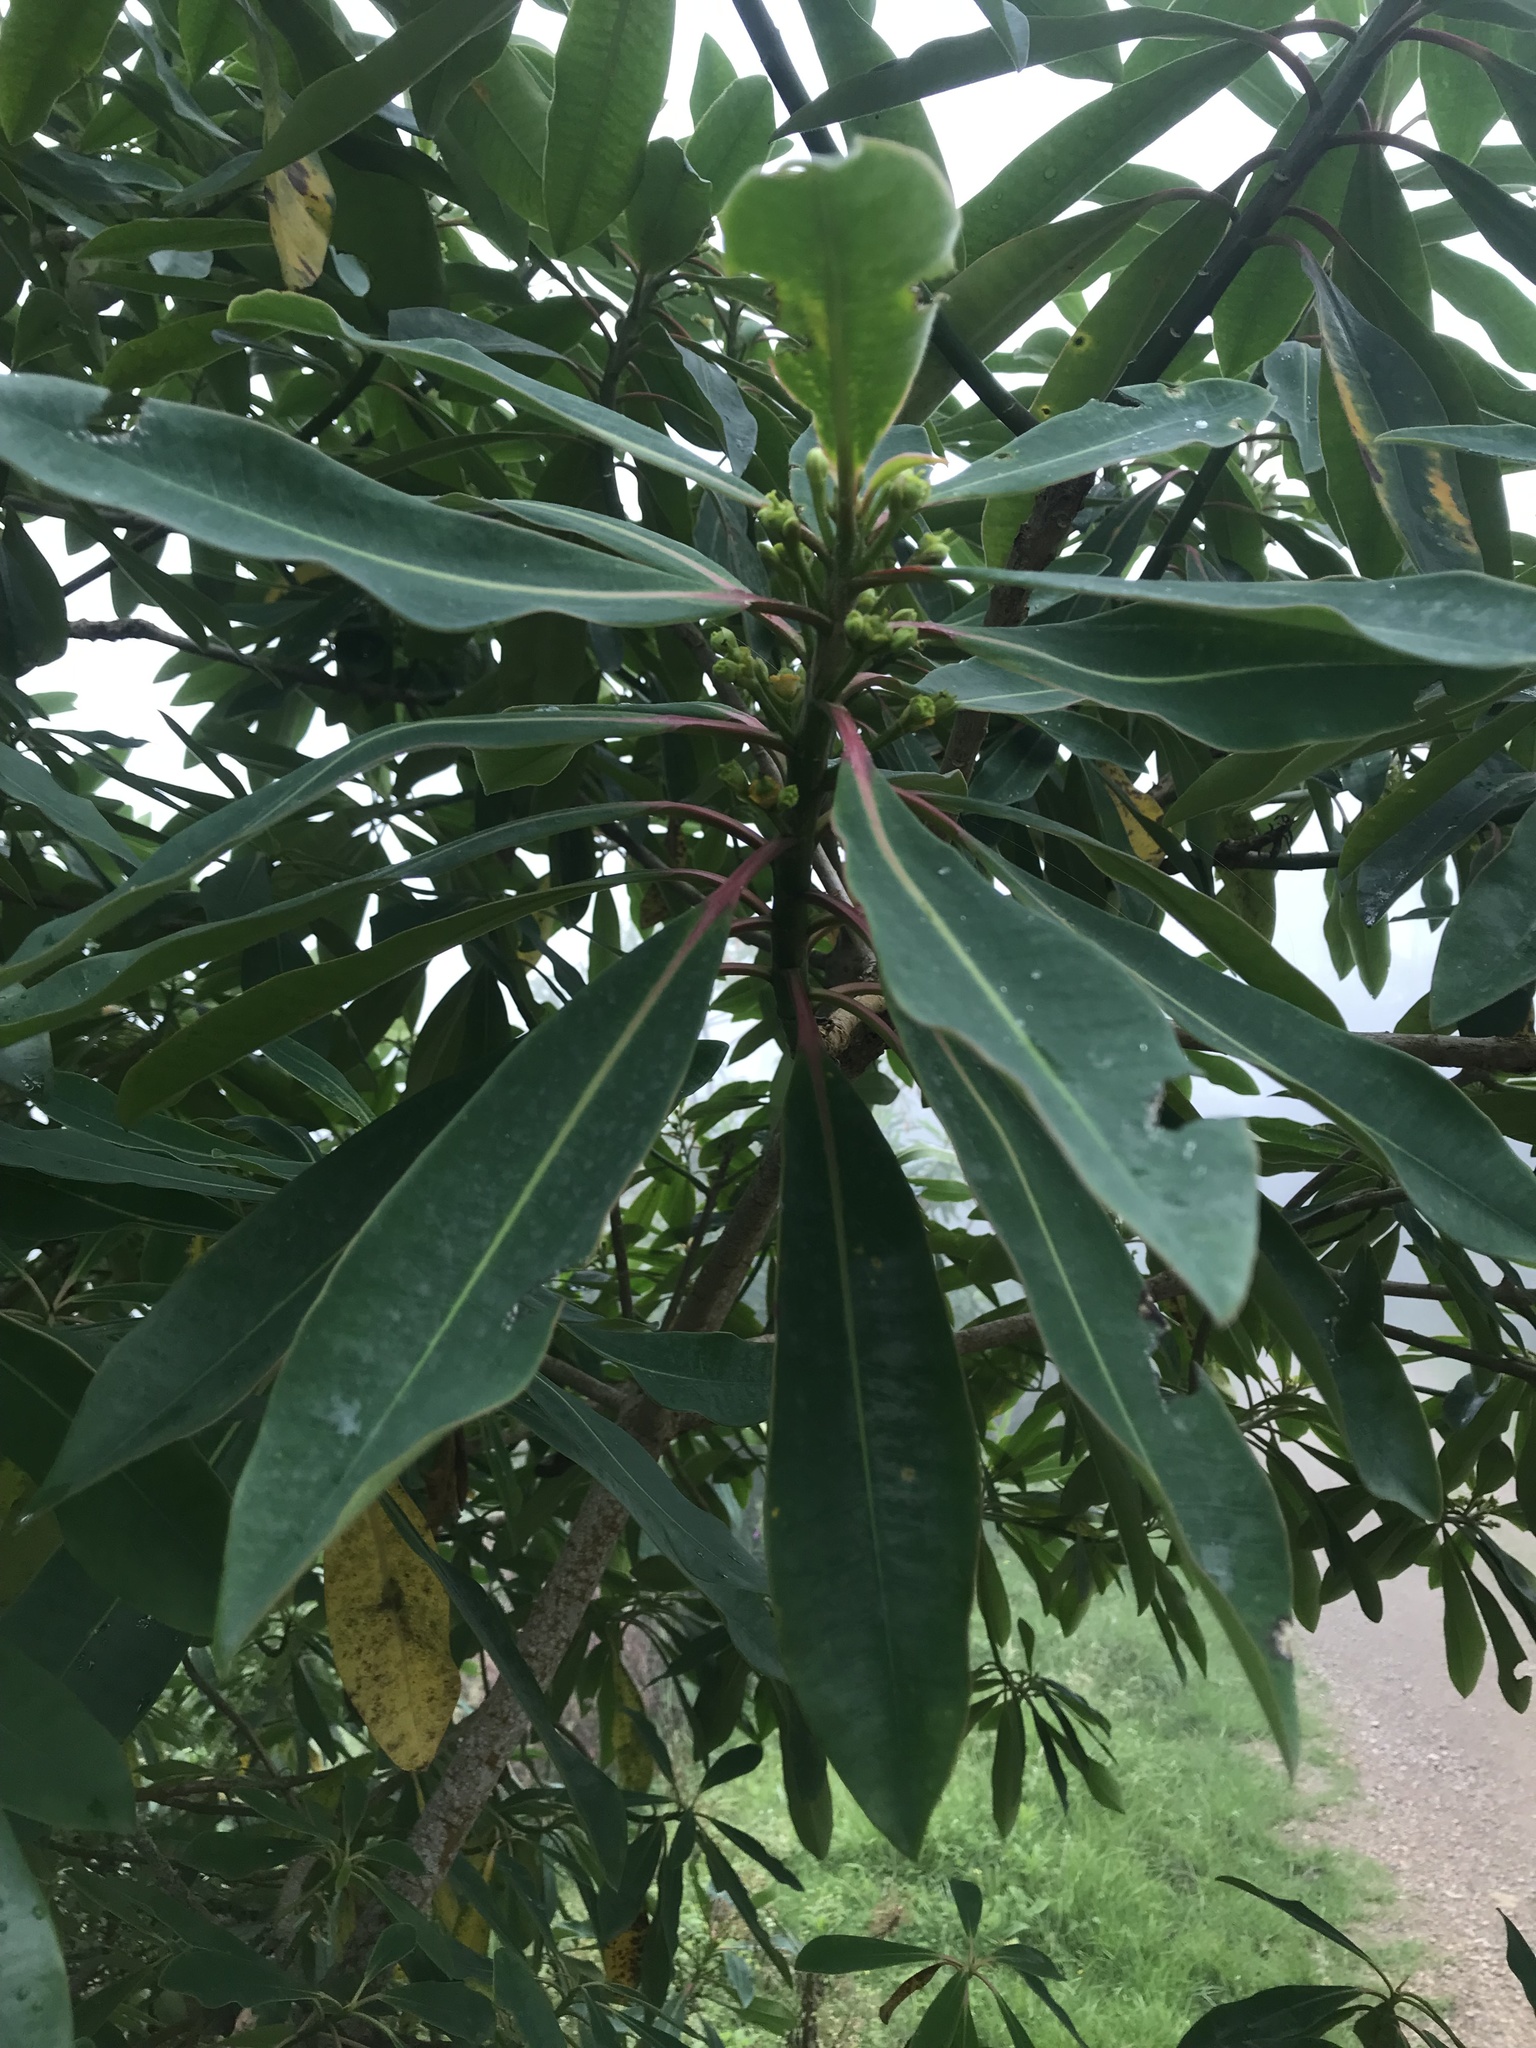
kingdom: Plantae
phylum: Tracheophyta
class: Magnoliopsida
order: Malpighiales
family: Euphorbiaceae
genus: Euphorbia
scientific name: Euphorbia laurifolia
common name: Lechero
